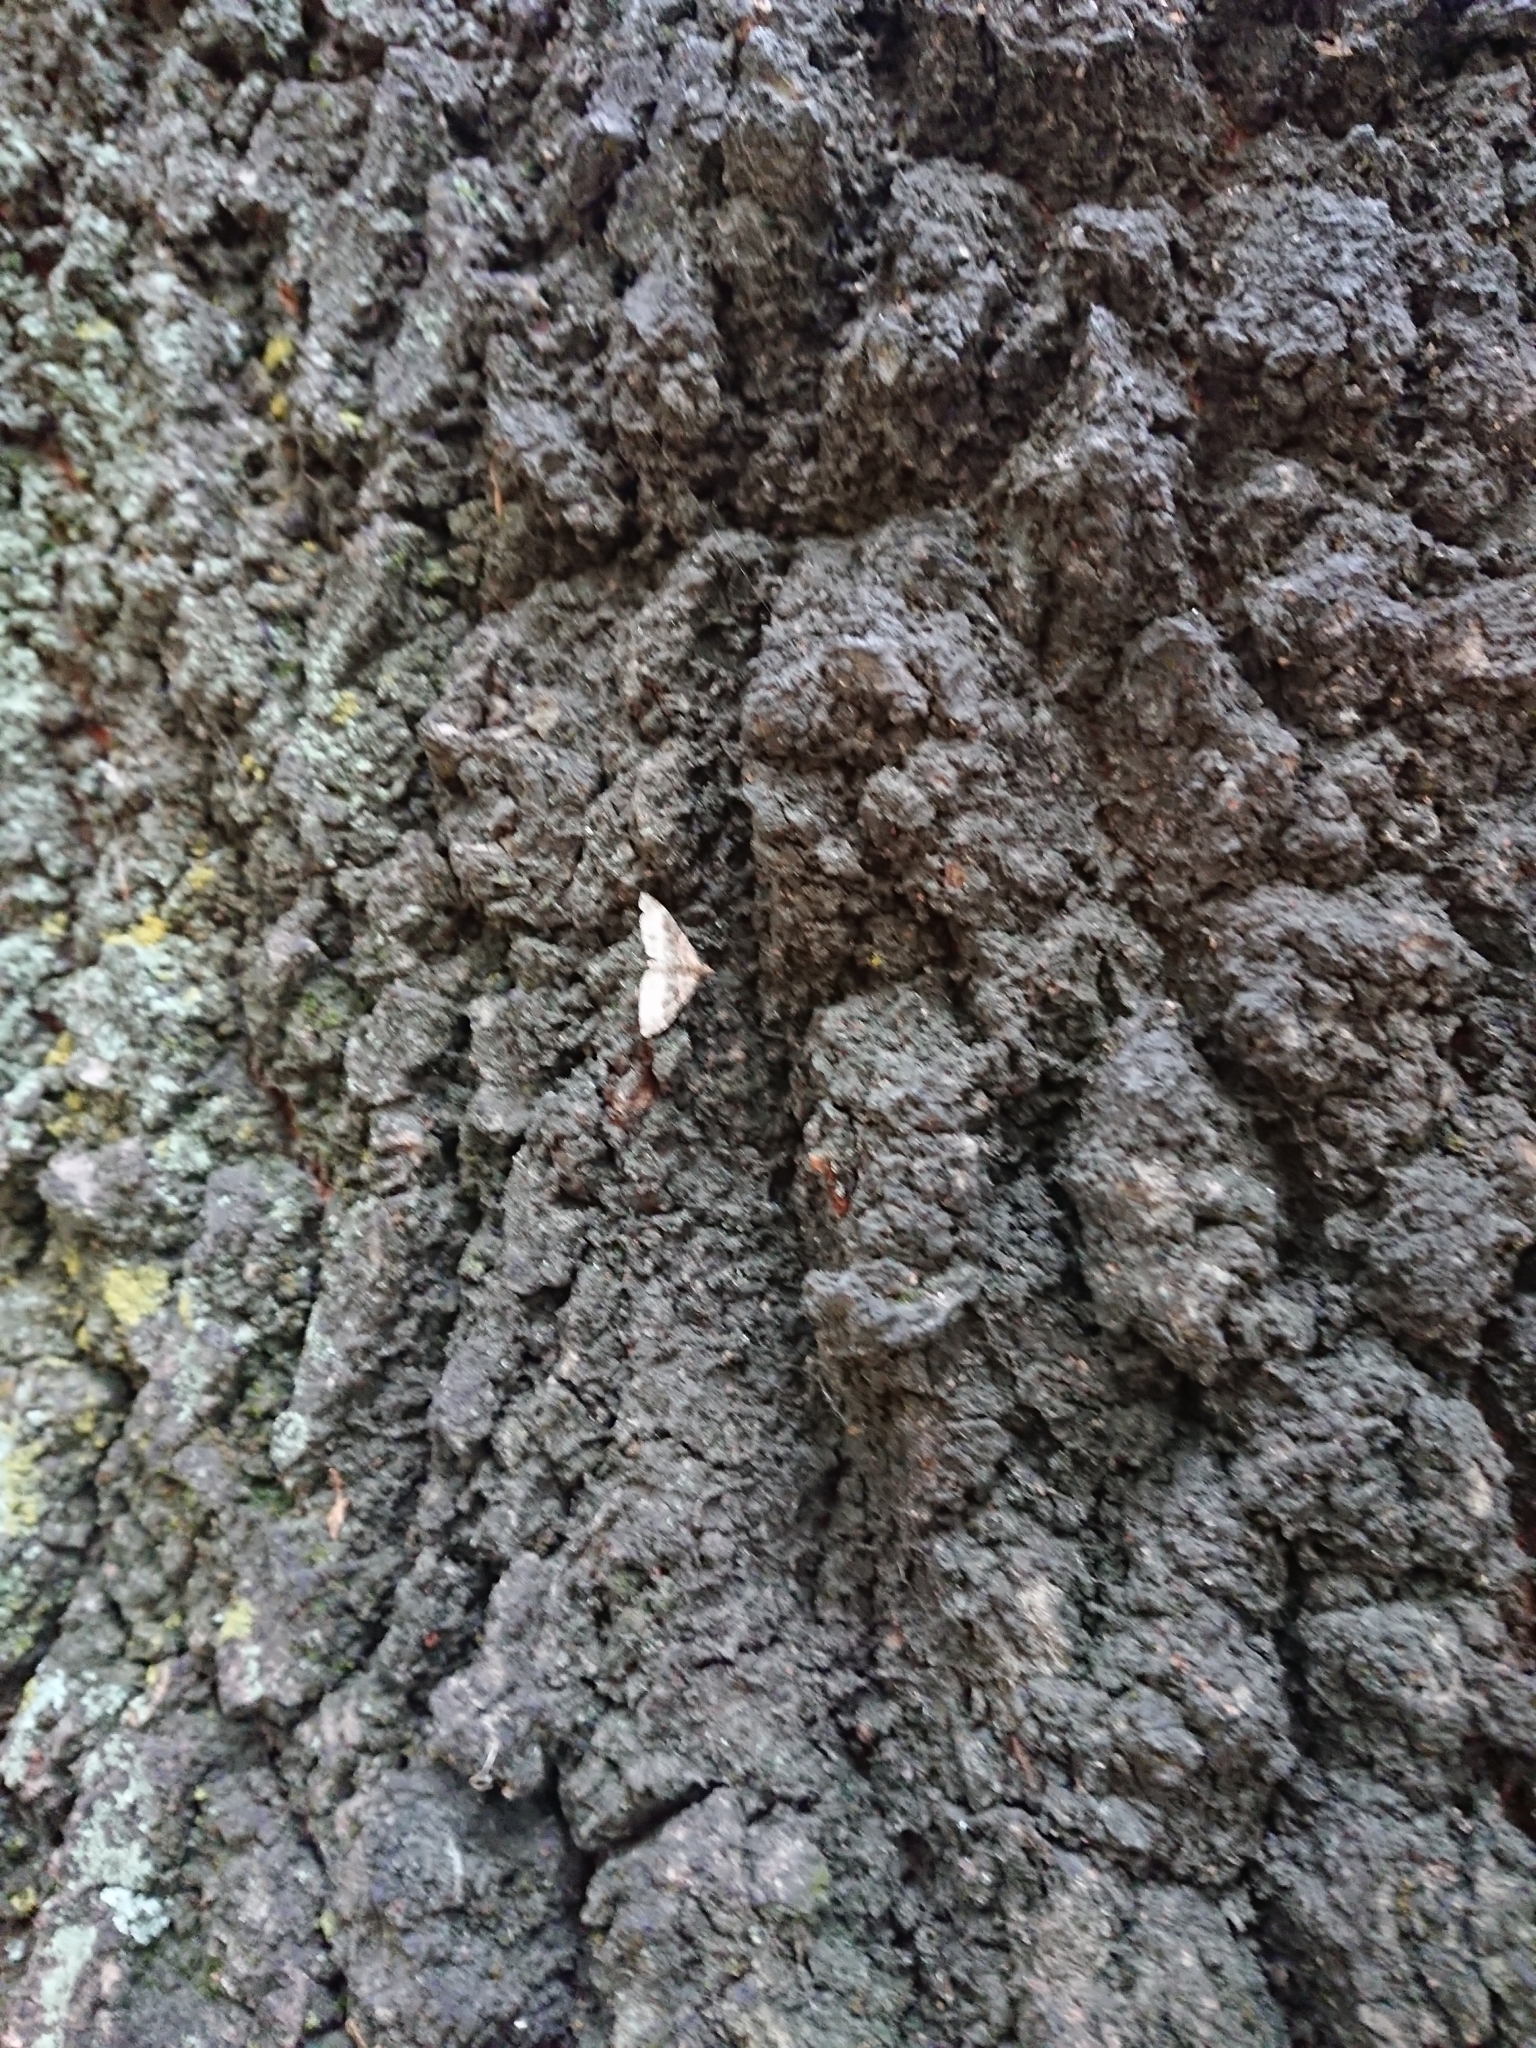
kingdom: Animalia
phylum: Arthropoda
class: Insecta
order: Lepidoptera
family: Geometridae
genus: Epyaxa
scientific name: Epyaxa lucidata
